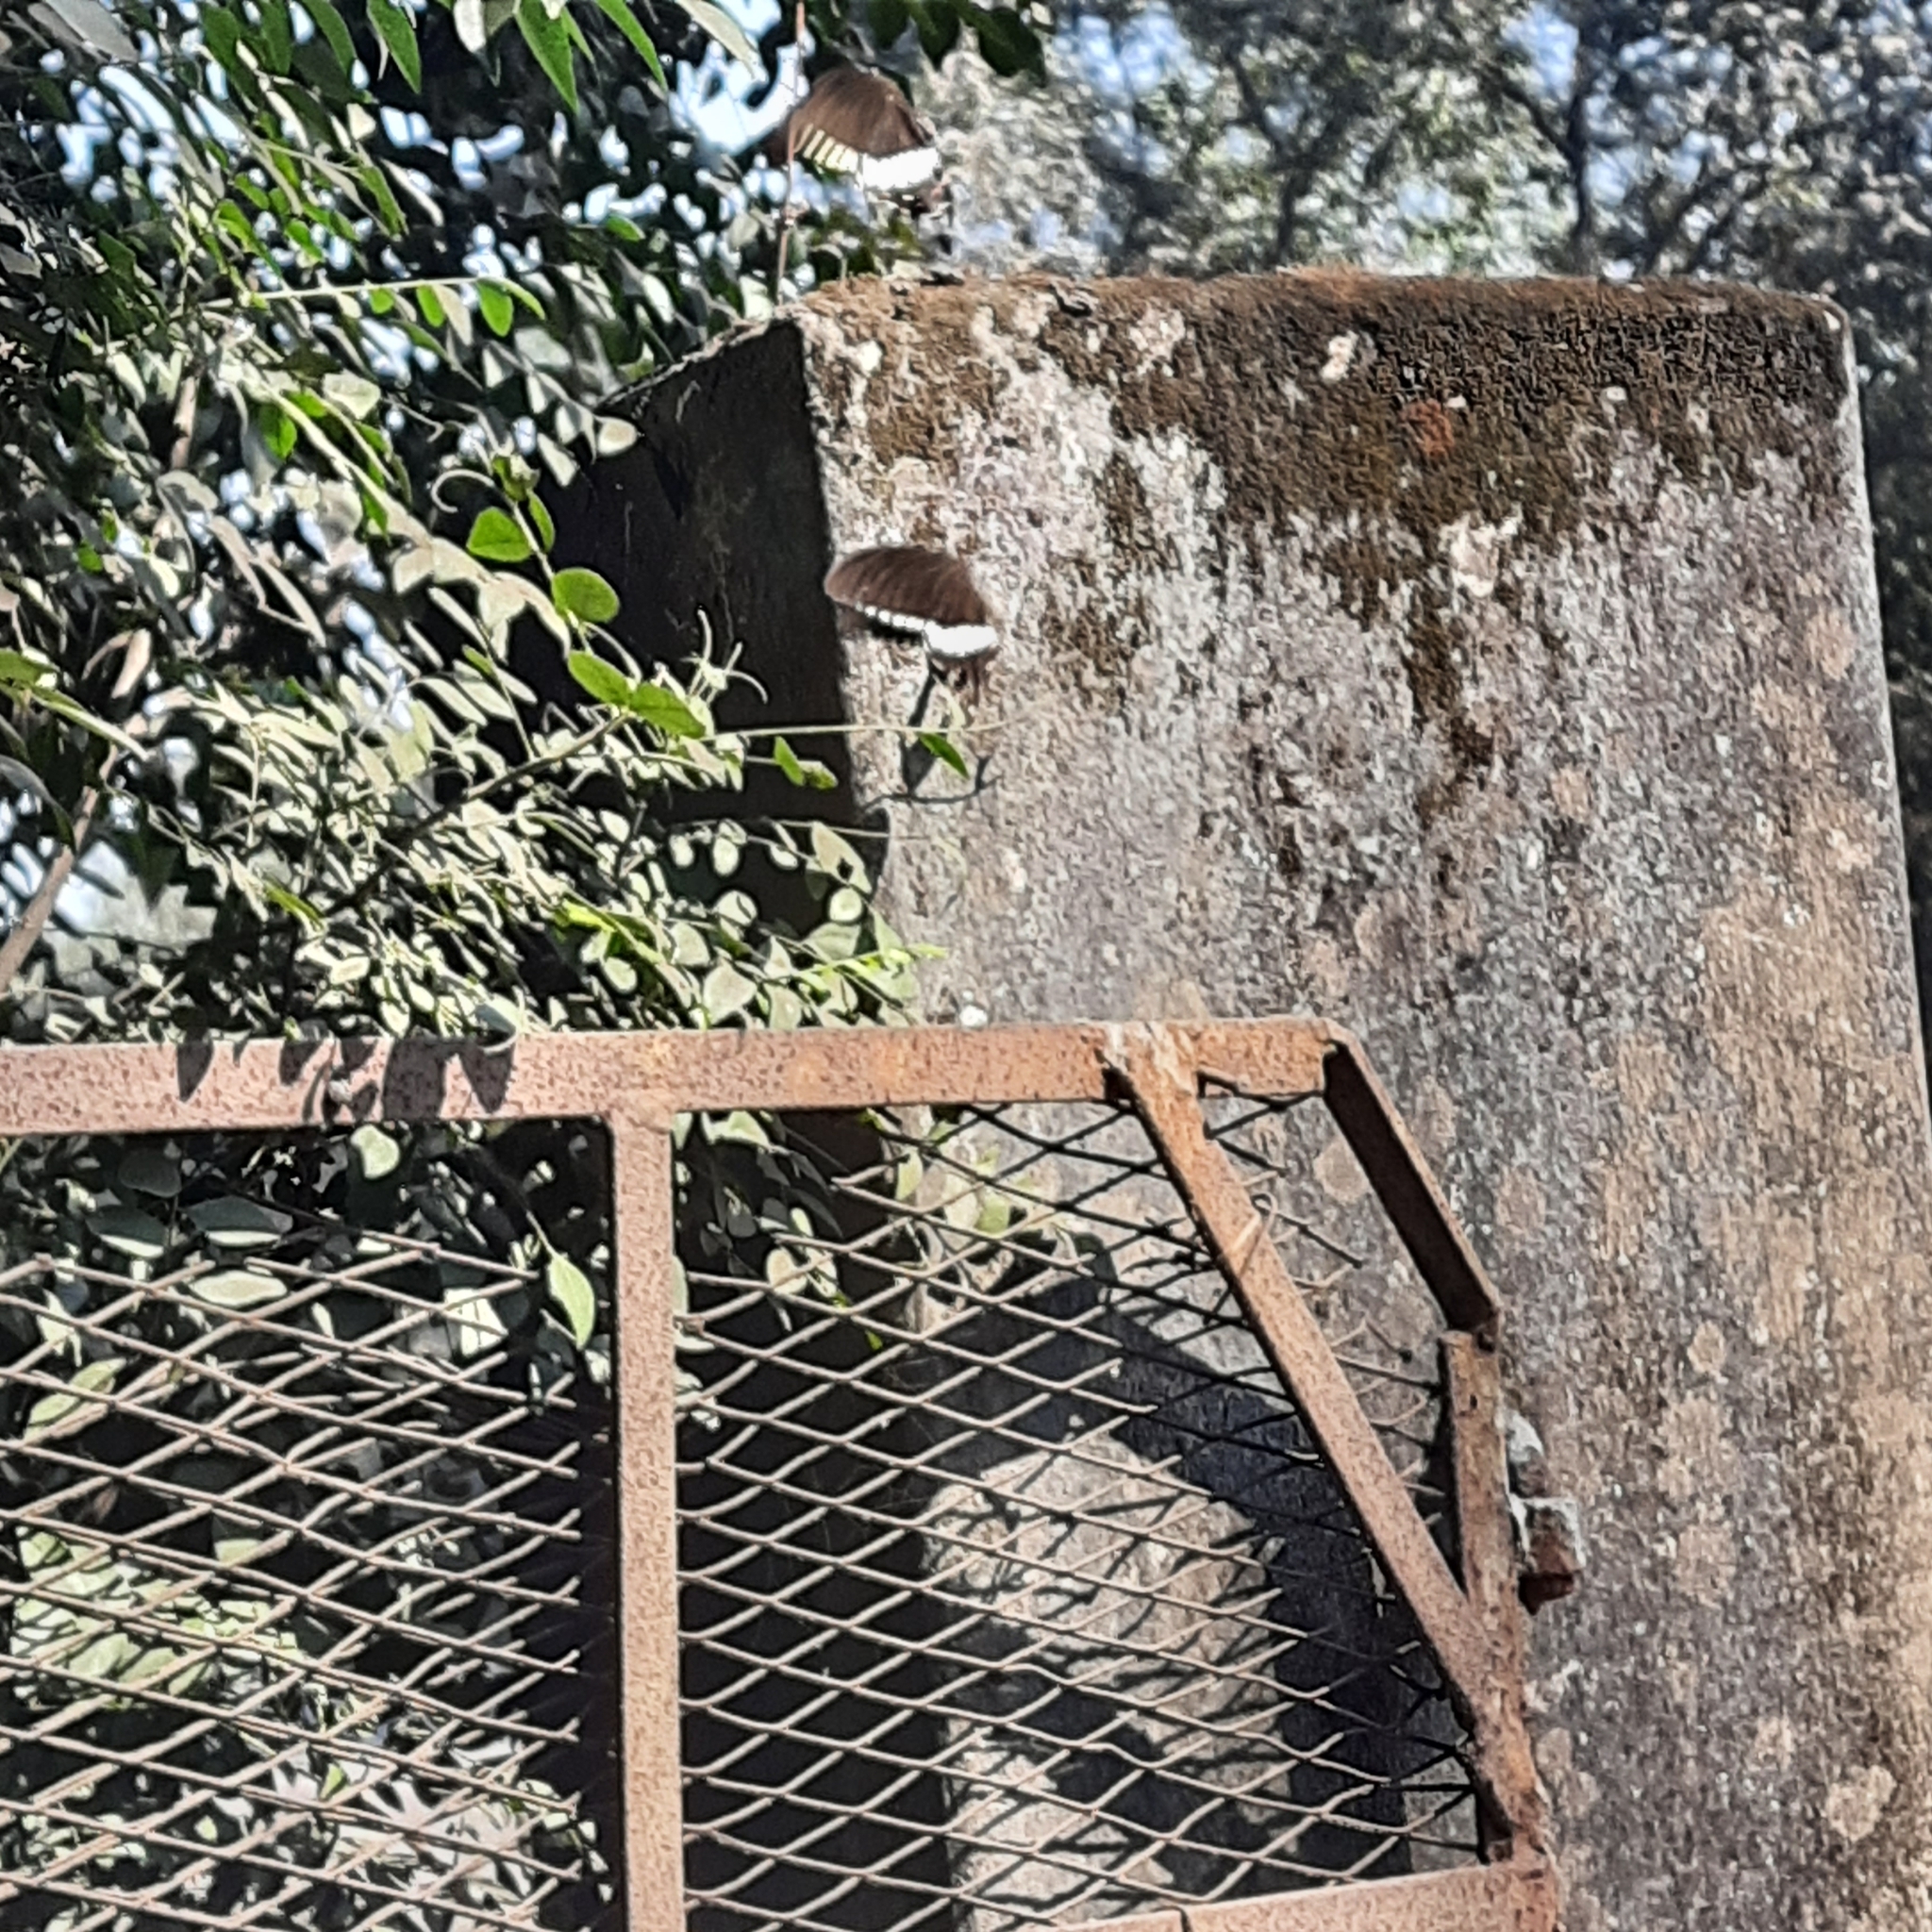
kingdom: Animalia
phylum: Arthropoda
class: Insecta
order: Lepidoptera
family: Papilionidae
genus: Papilio
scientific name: Papilio polytes
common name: Common mormon
